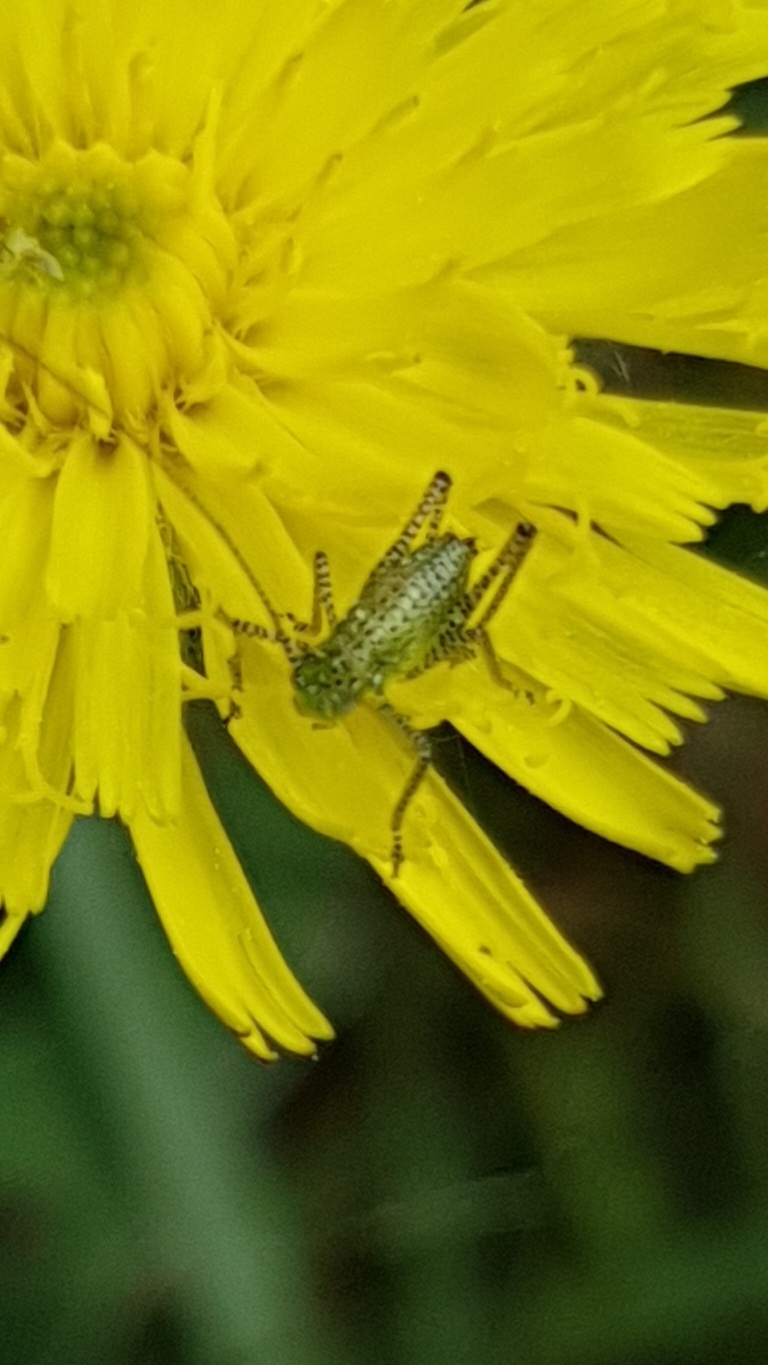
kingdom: Animalia
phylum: Arthropoda
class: Insecta
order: Orthoptera
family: Tettigoniidae
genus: Leptophyes
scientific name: Leptophyes punctatissima
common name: Speckled bush-cricket
